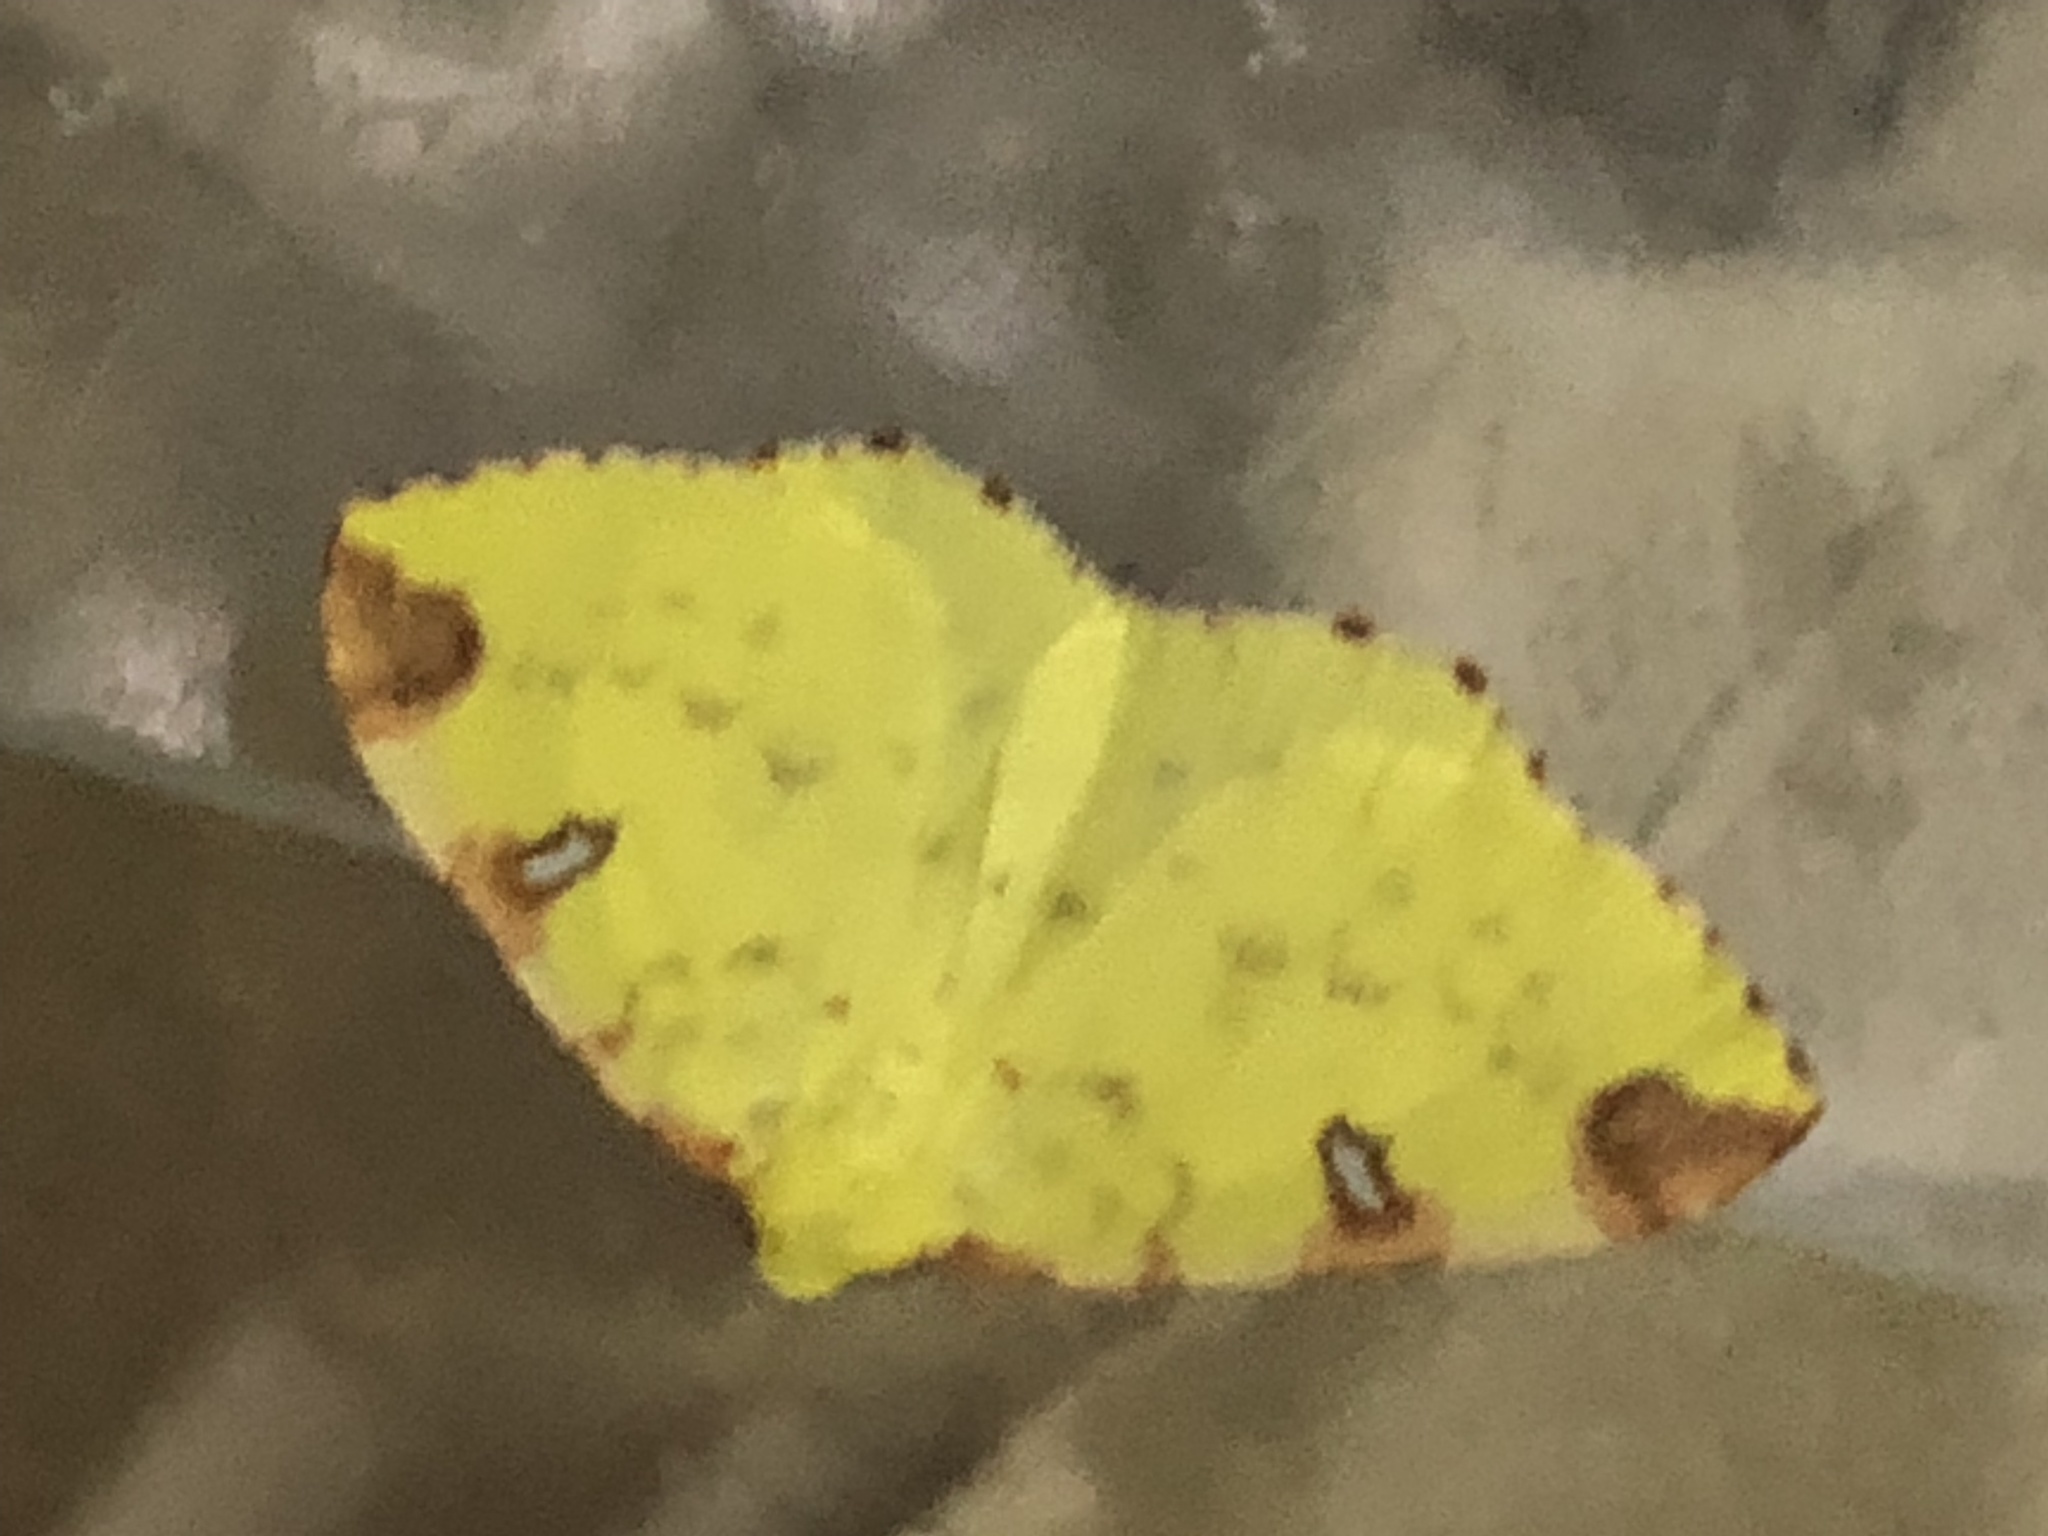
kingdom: Animalia
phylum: Arthropoda
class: Insecta
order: Lepidoptera
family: Geometridae
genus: Opisthograptis
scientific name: Opisthograptis luteolata
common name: Brimstone moth
